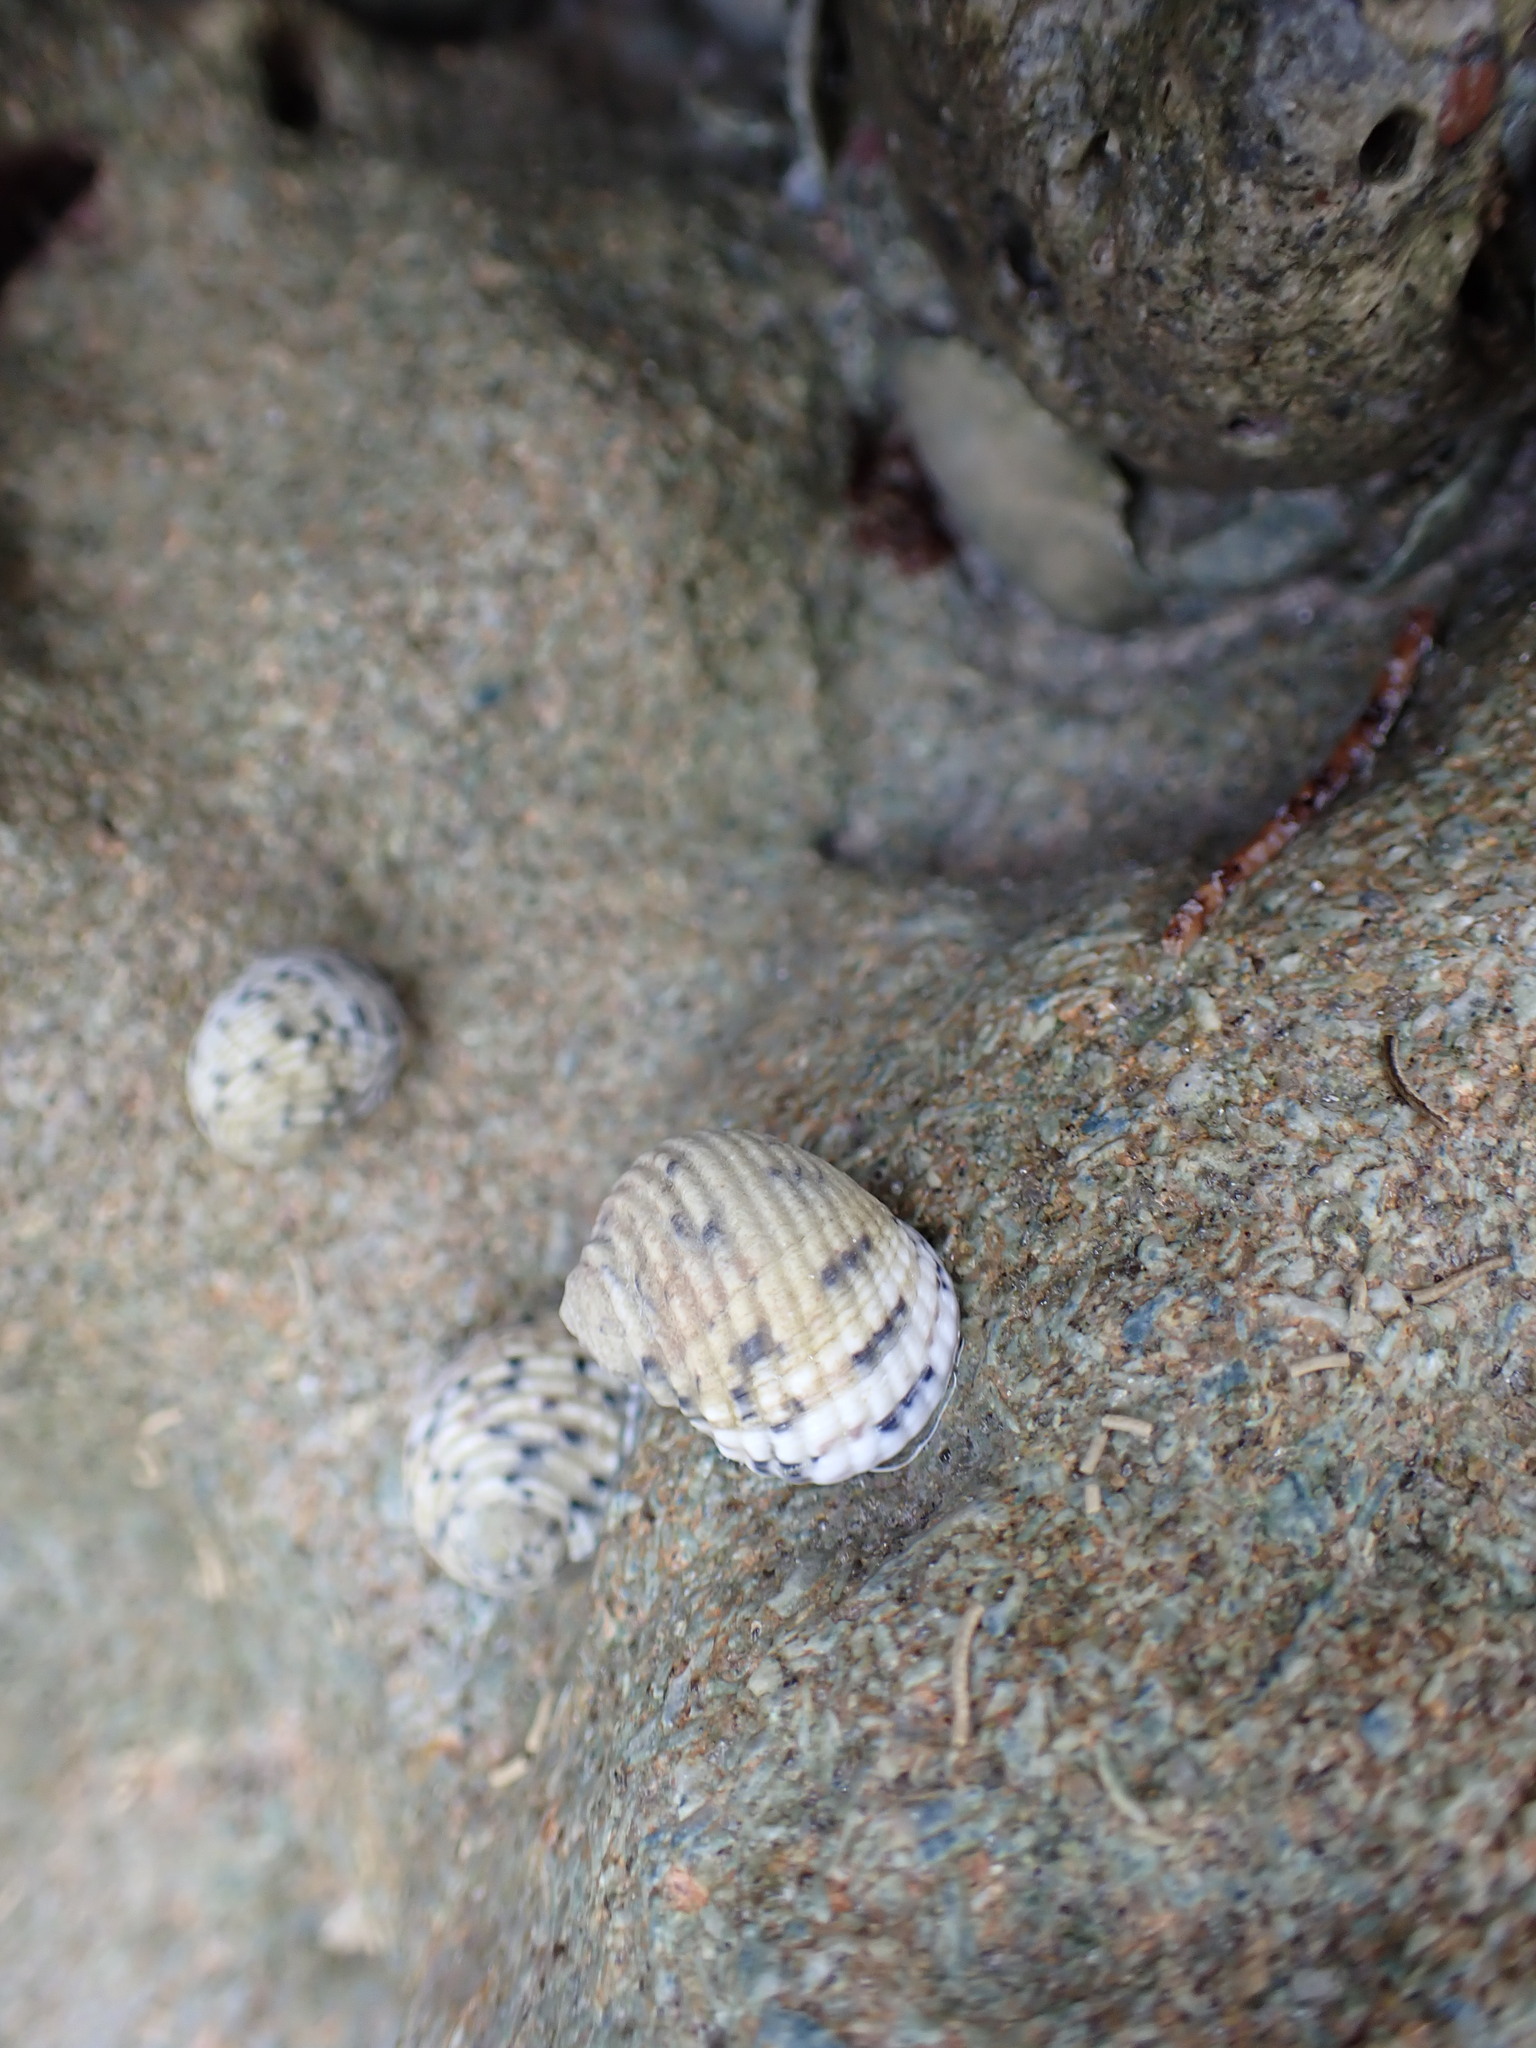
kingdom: Animalia
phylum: Mollusca
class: Gastropoda
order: Cycloneritida
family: Neritidae
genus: Nerita
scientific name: Nerita versicolor
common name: Four-tooth nerite
